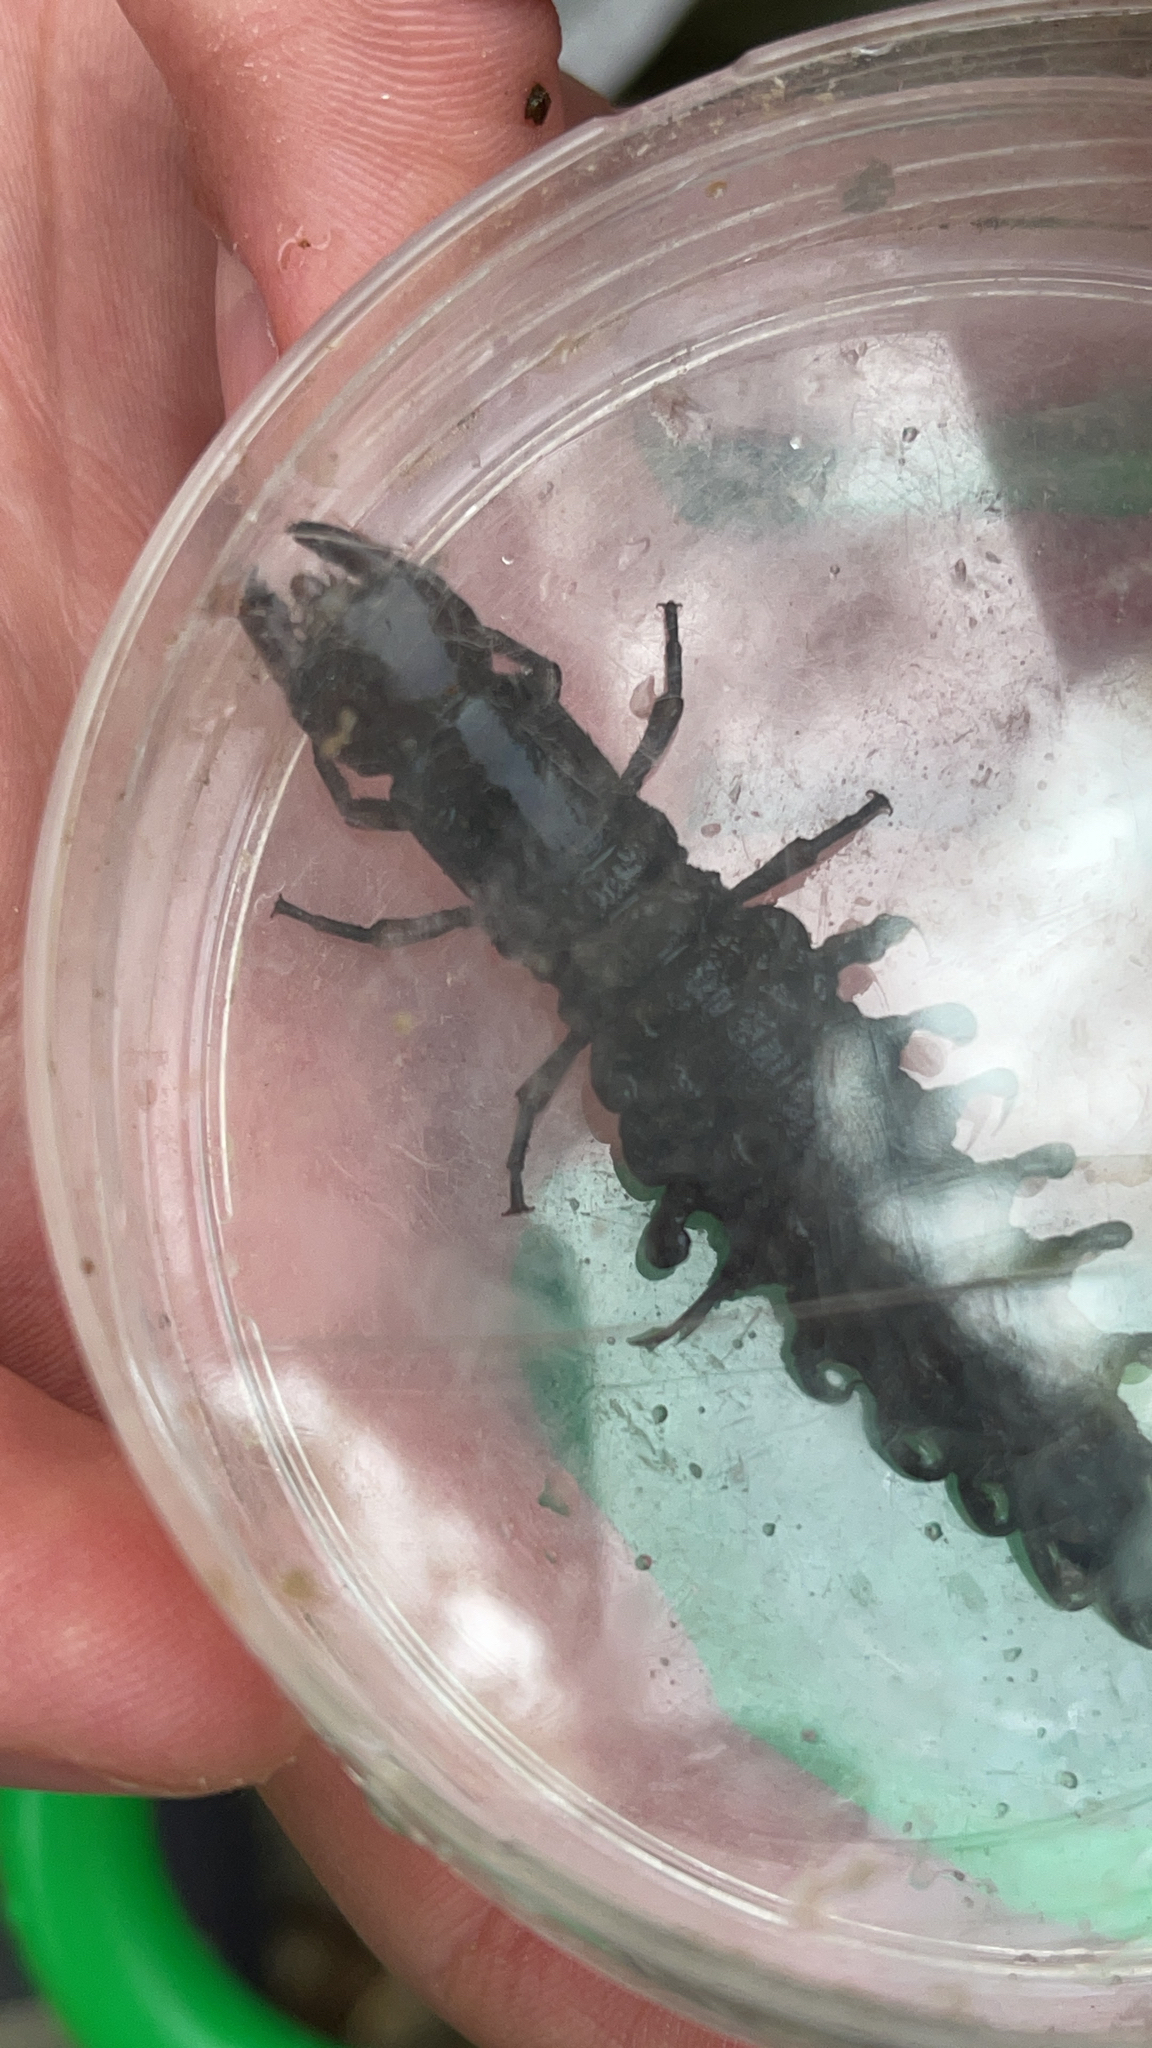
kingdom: Animalia
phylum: Arthropoda
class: Insecta
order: Megaloptera
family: Corydalidae
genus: Corydalus
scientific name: Corydalus cornutus
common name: Dobsonfly
